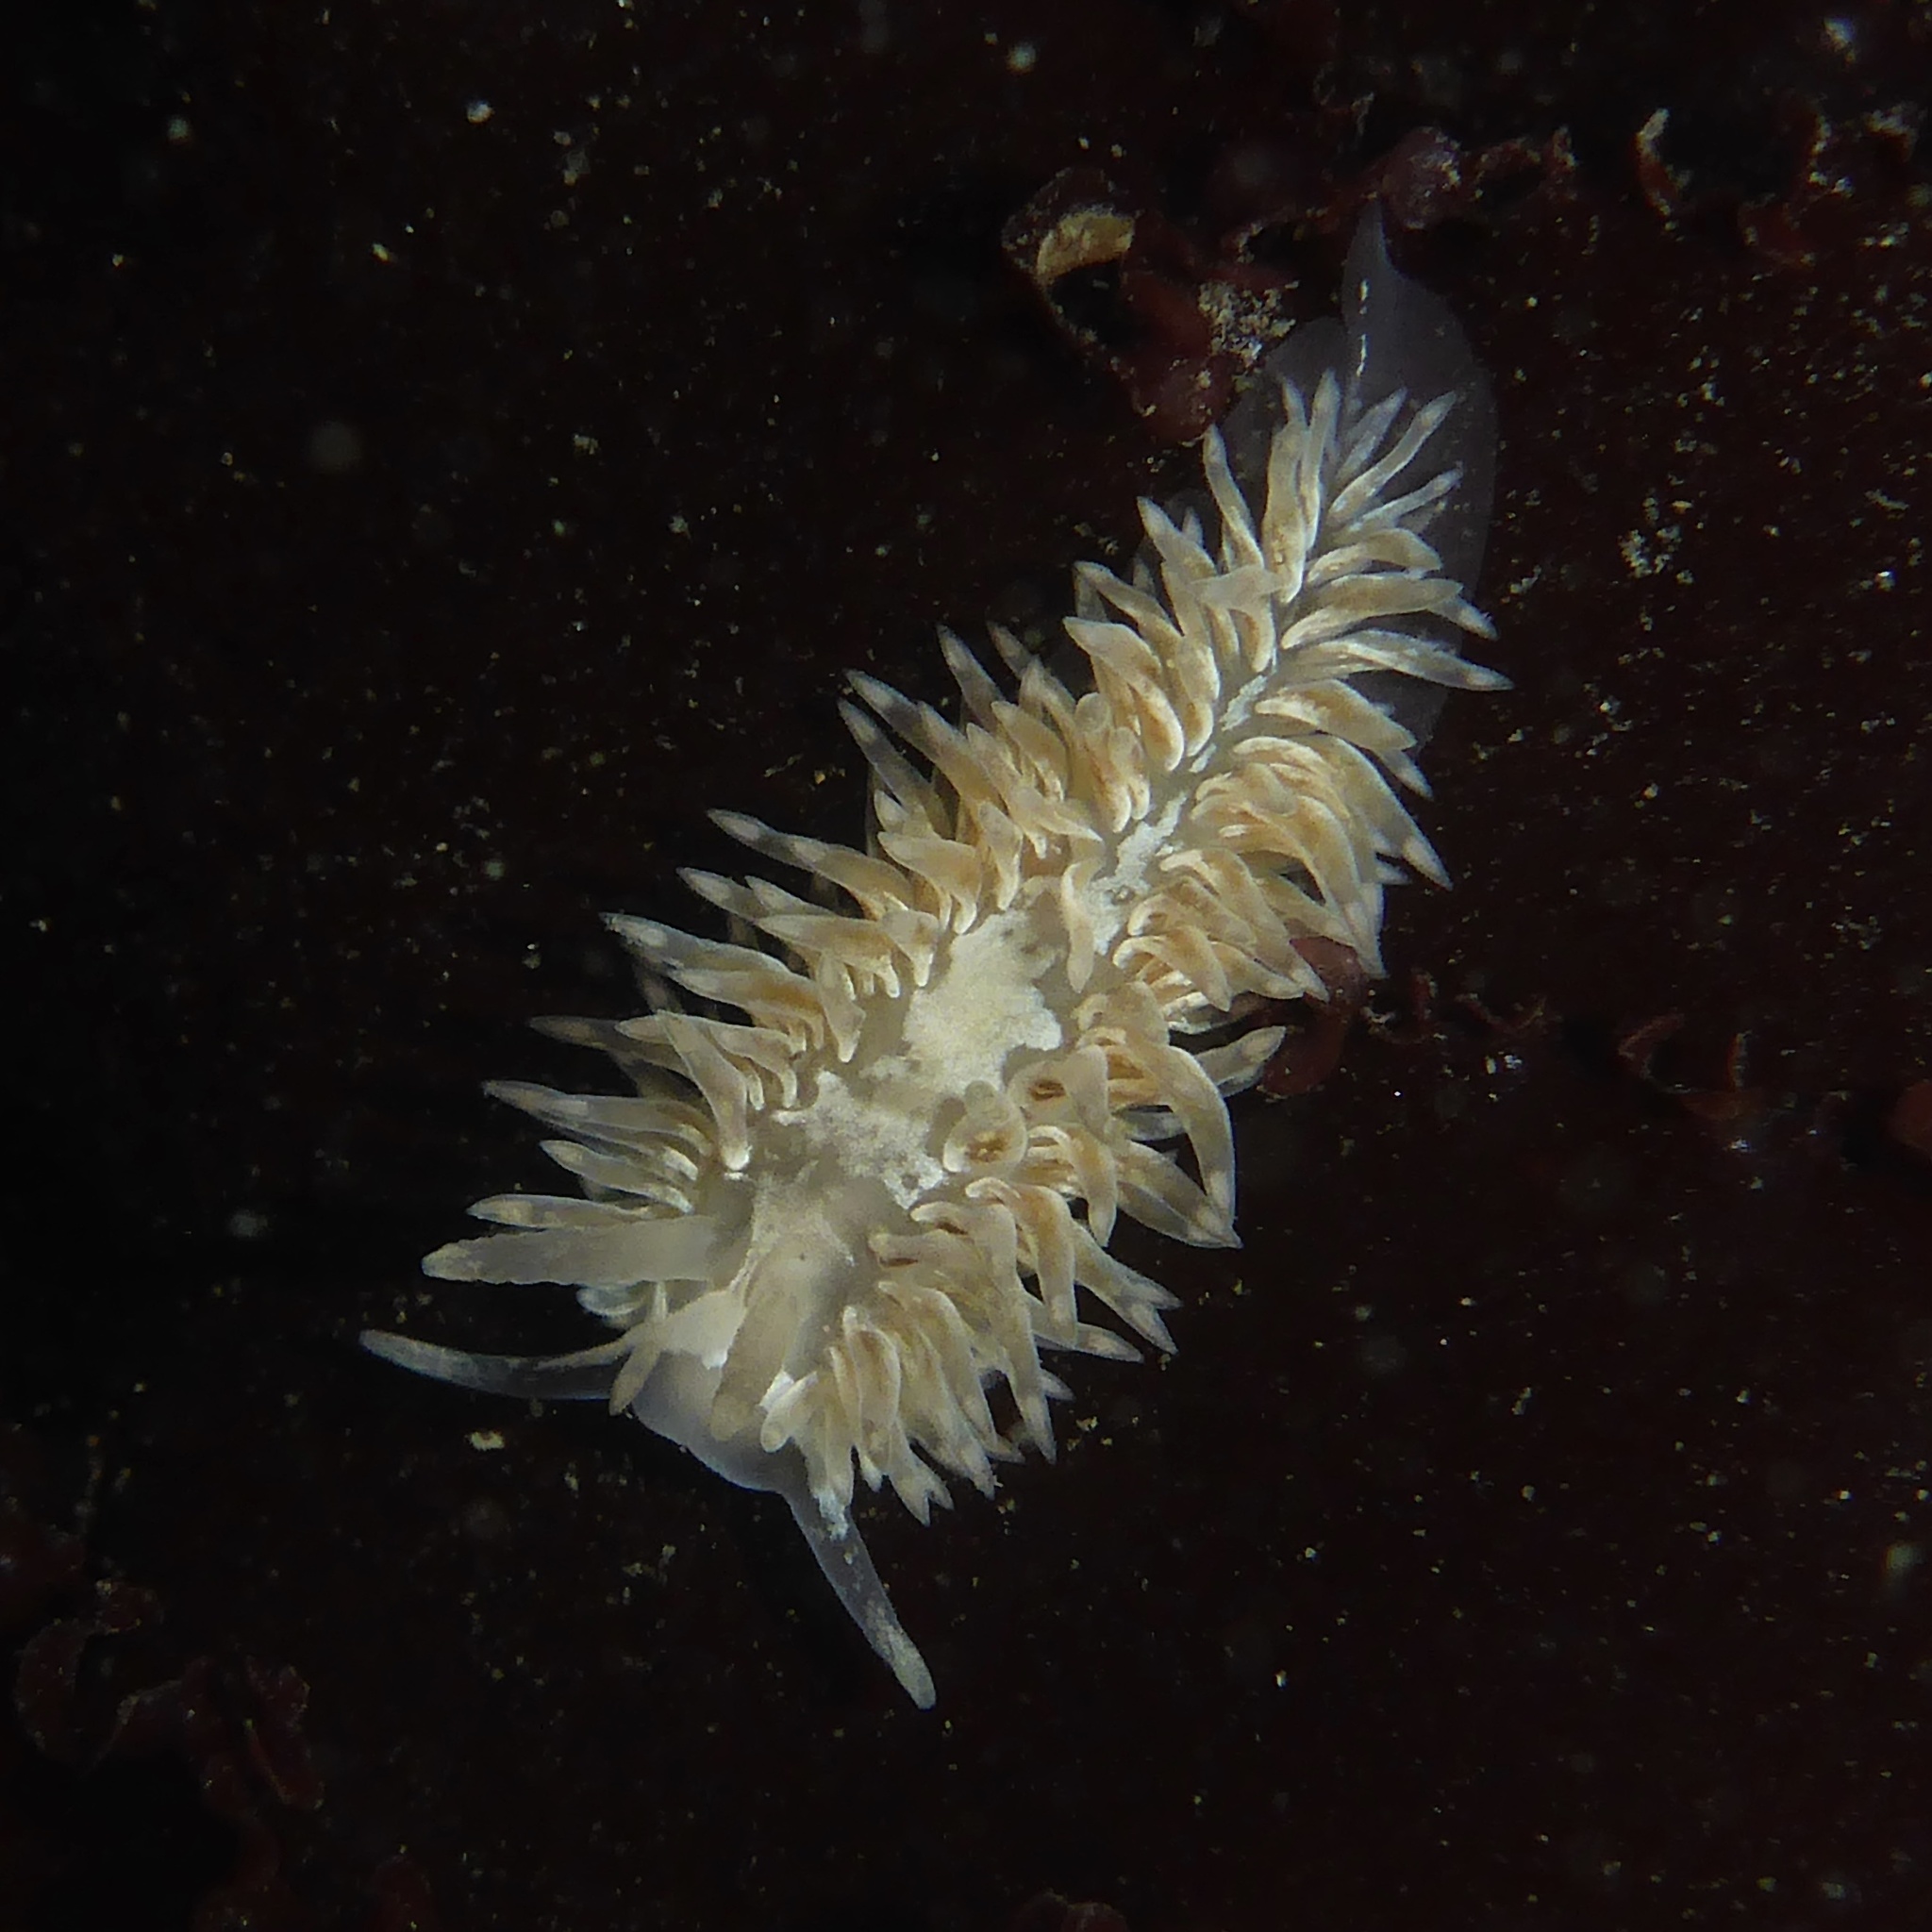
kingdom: Animalia
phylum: Mollusca
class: Gastropoda
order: Nudibranchia
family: Aeolidiidae
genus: Aeolidia
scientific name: Aeolidia loui
